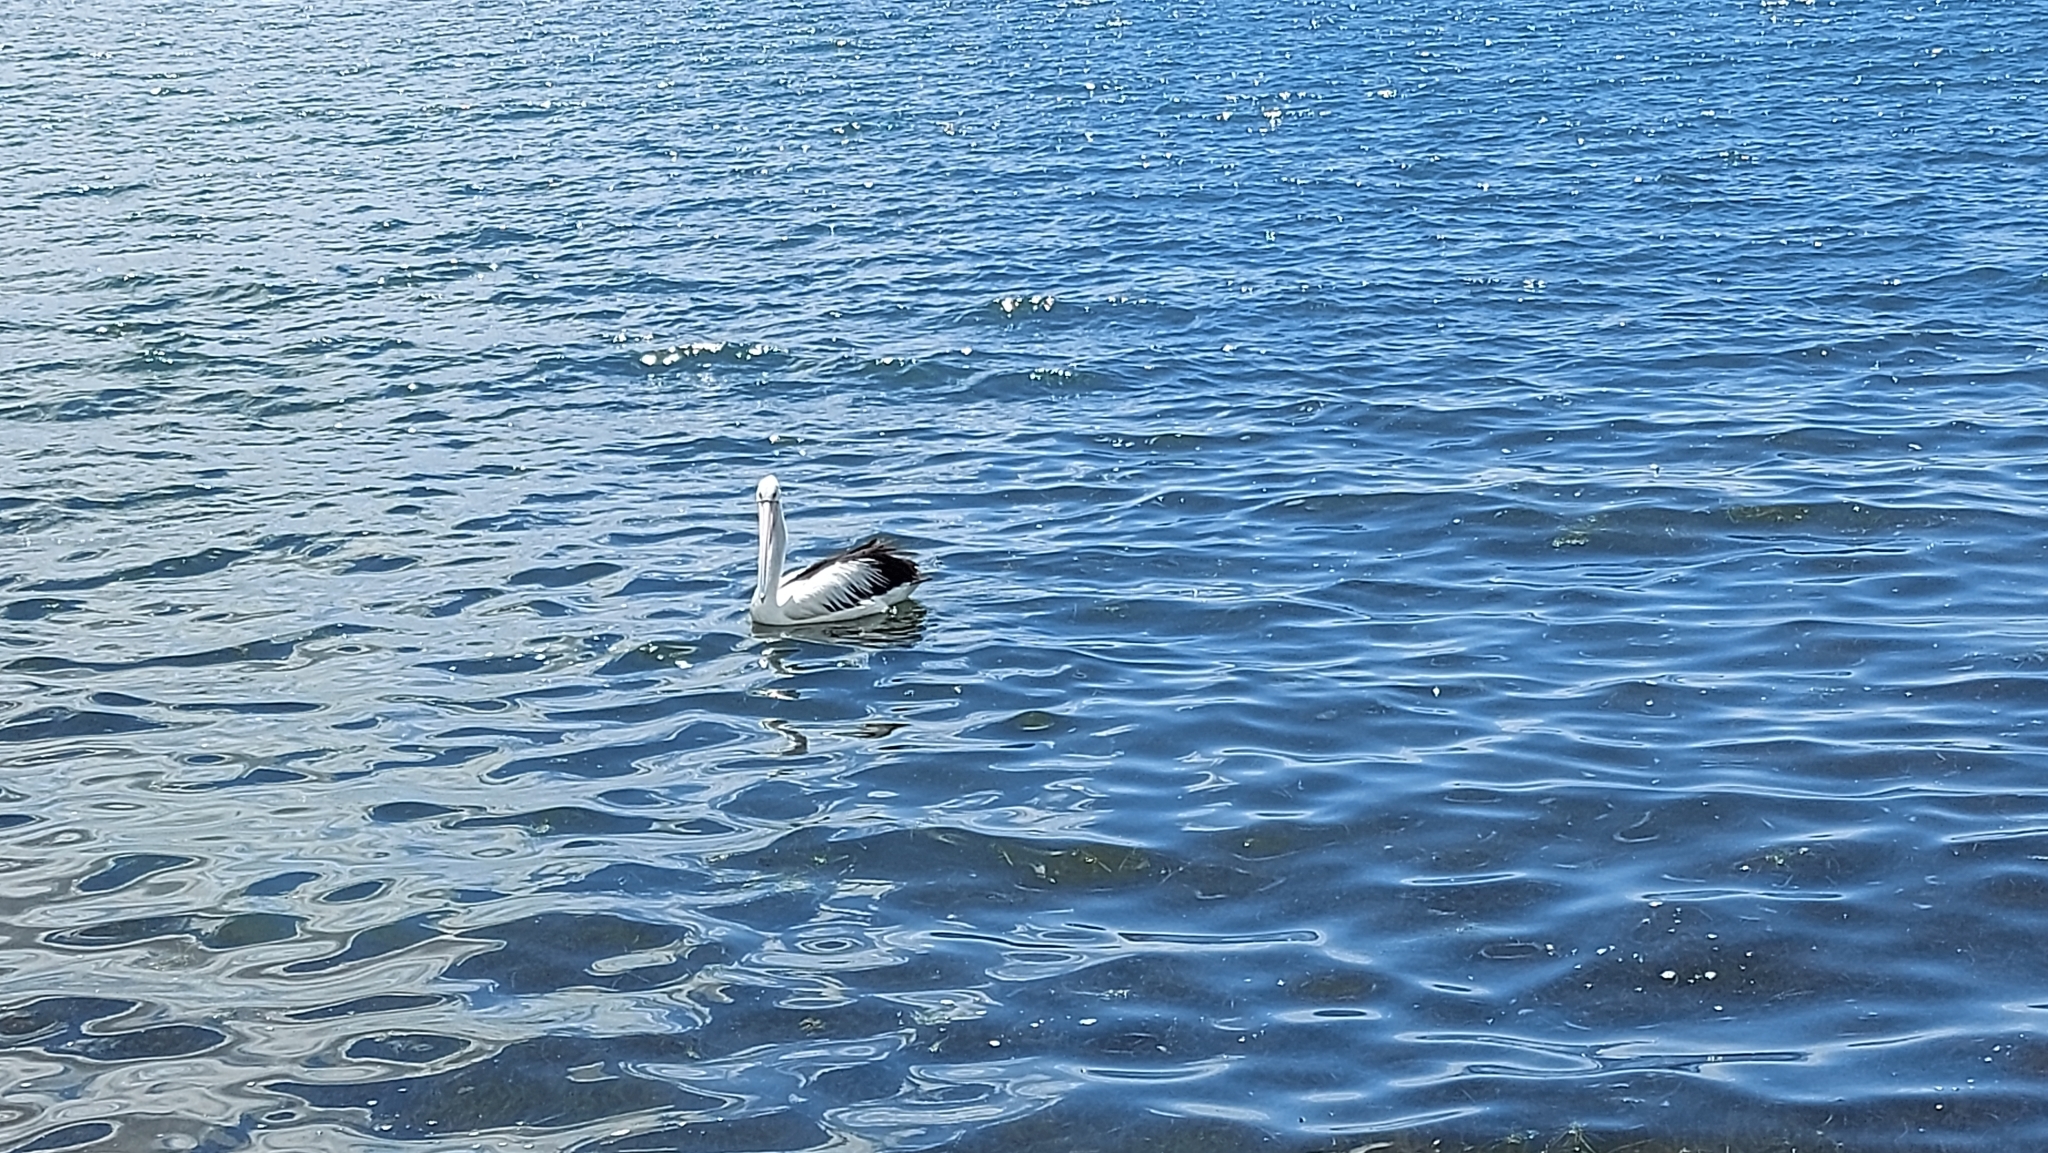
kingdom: Animalia
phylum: Chordata
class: Aves
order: Pelecaniformes
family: Pelecanidae
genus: Pelecanus
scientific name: Pelecanus conspicillatus
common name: Australian pelican
